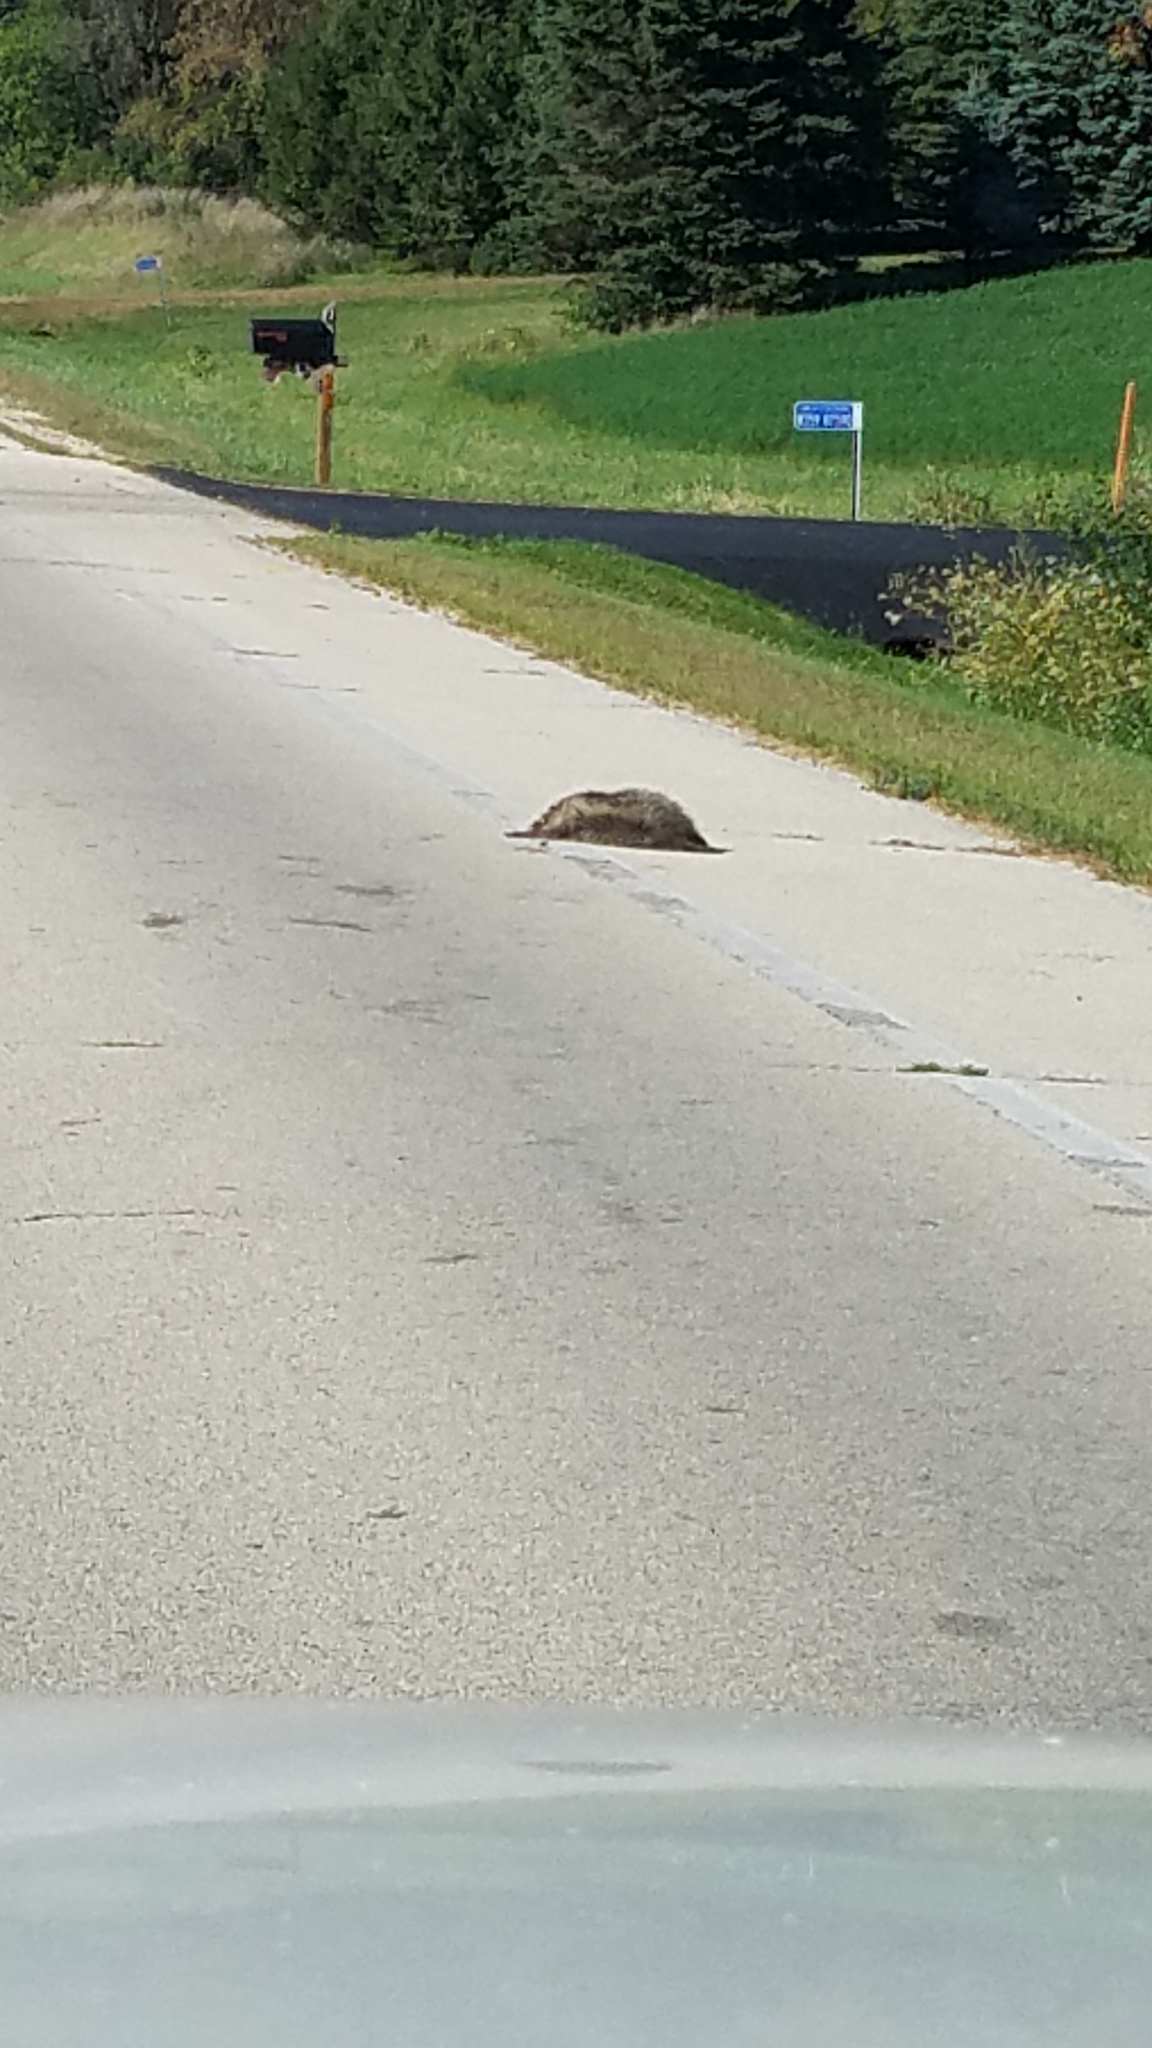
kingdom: Animalia
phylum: Chordata
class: Mammalia
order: Carnivora
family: Procyonidae
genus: Procyon
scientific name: Procyon lotor
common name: Raccoon
